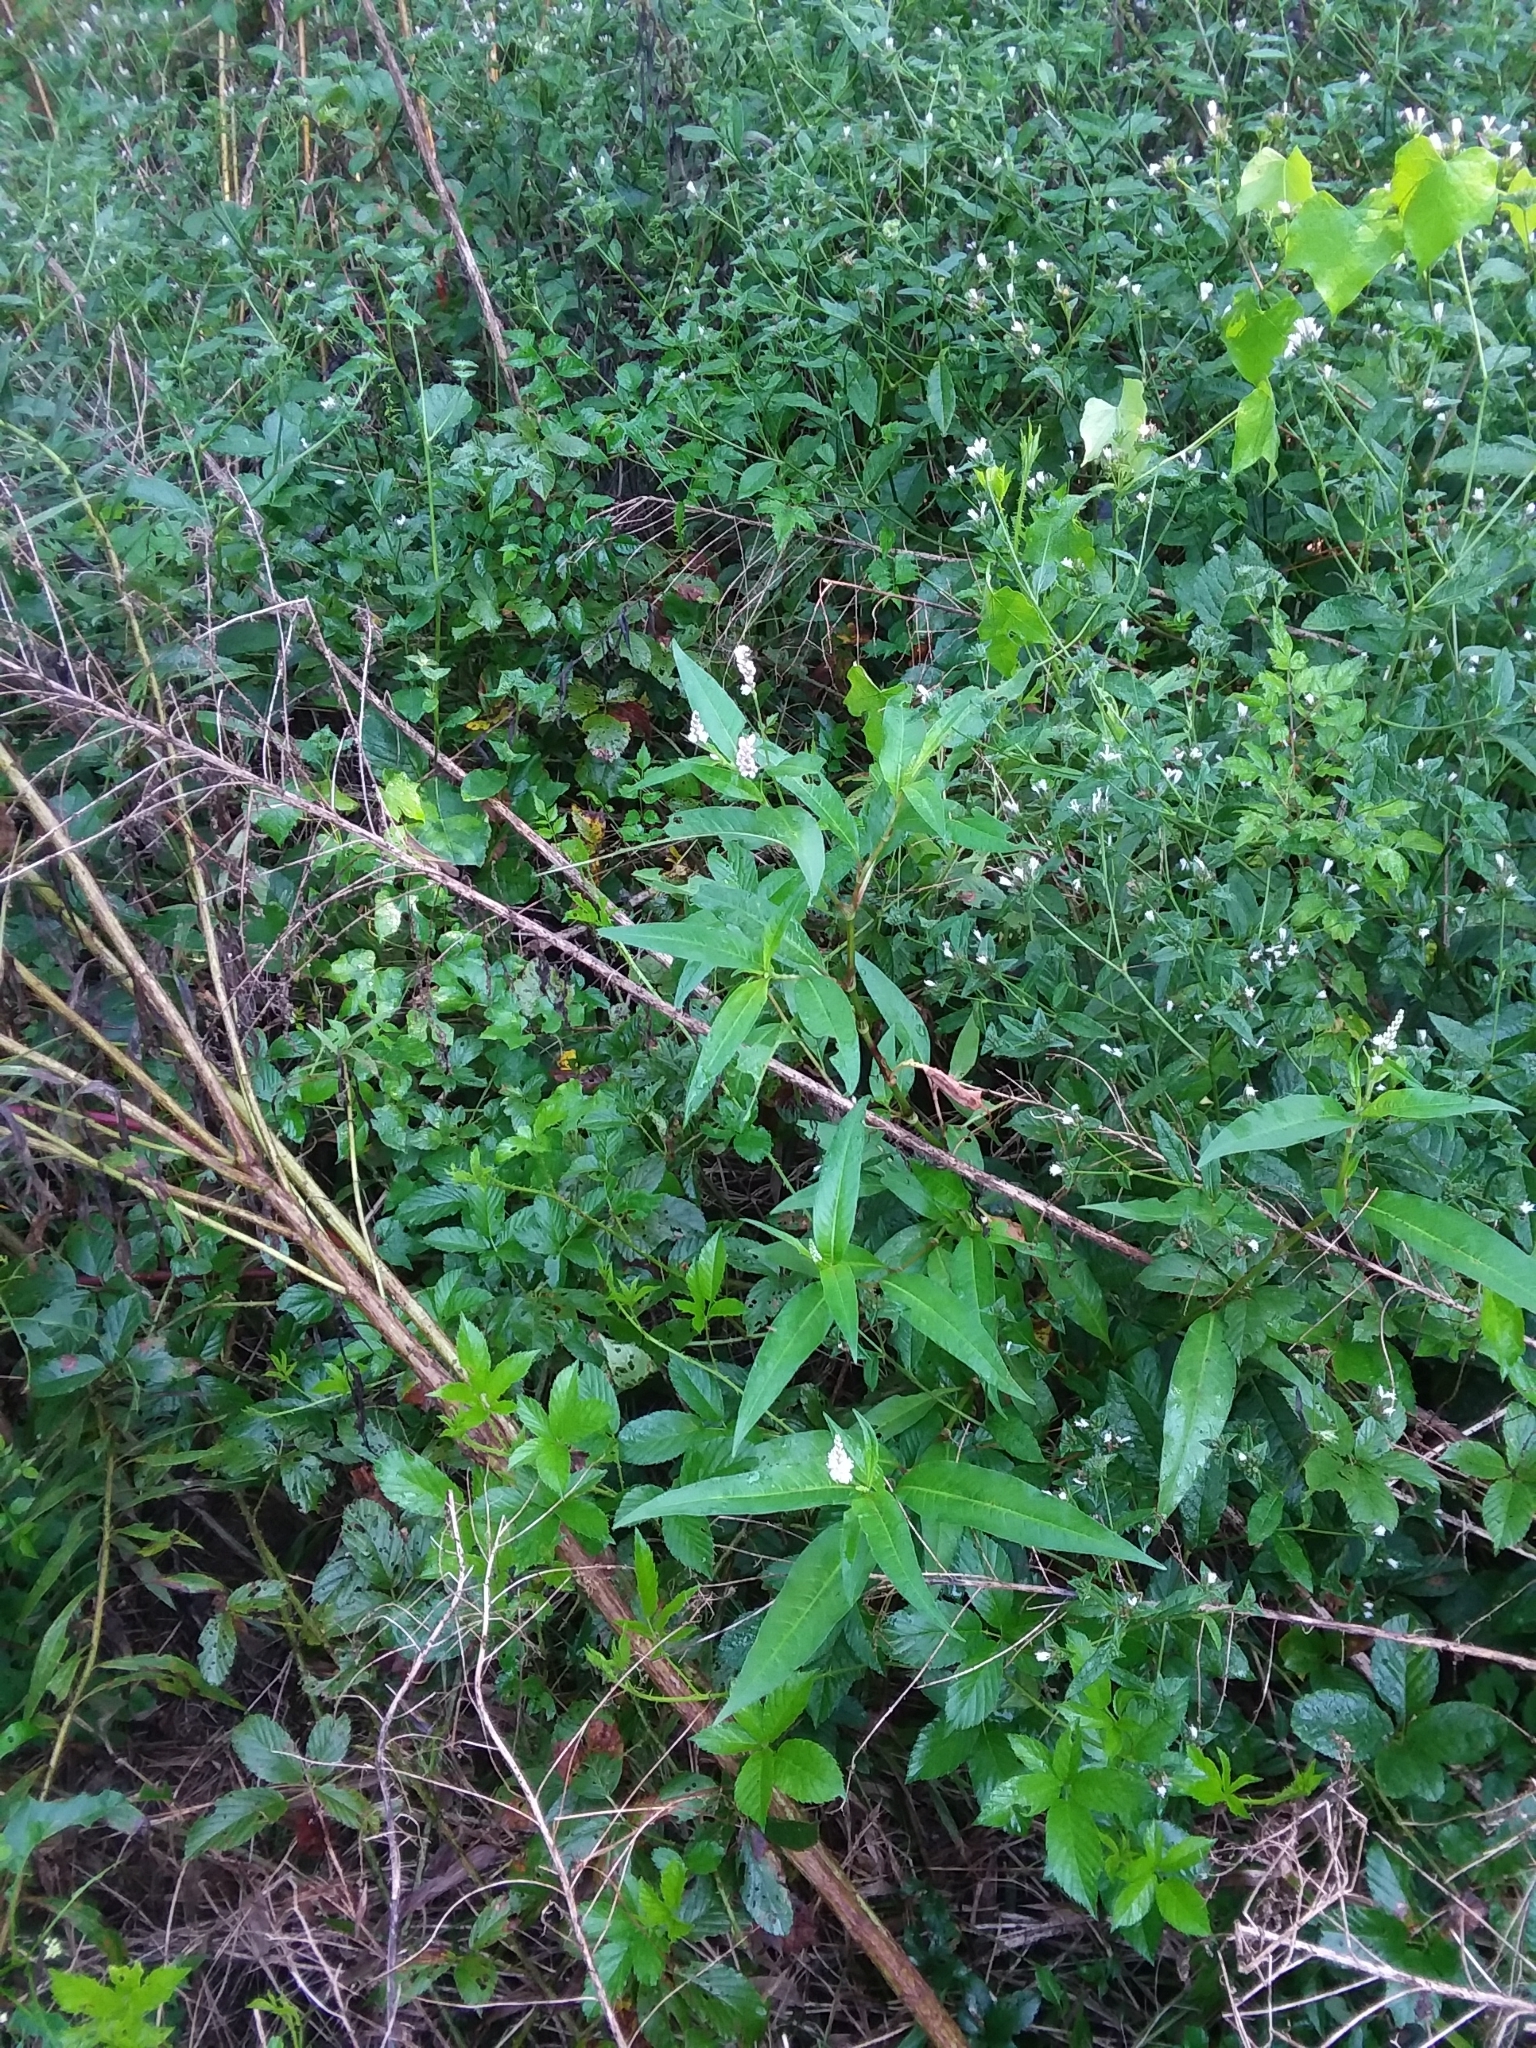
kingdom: Plantae
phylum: Tracheophyta
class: Magnoliopsida
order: Caryophyllales
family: Polygonaceae
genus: Persicaria
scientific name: Persicaria bicornis
